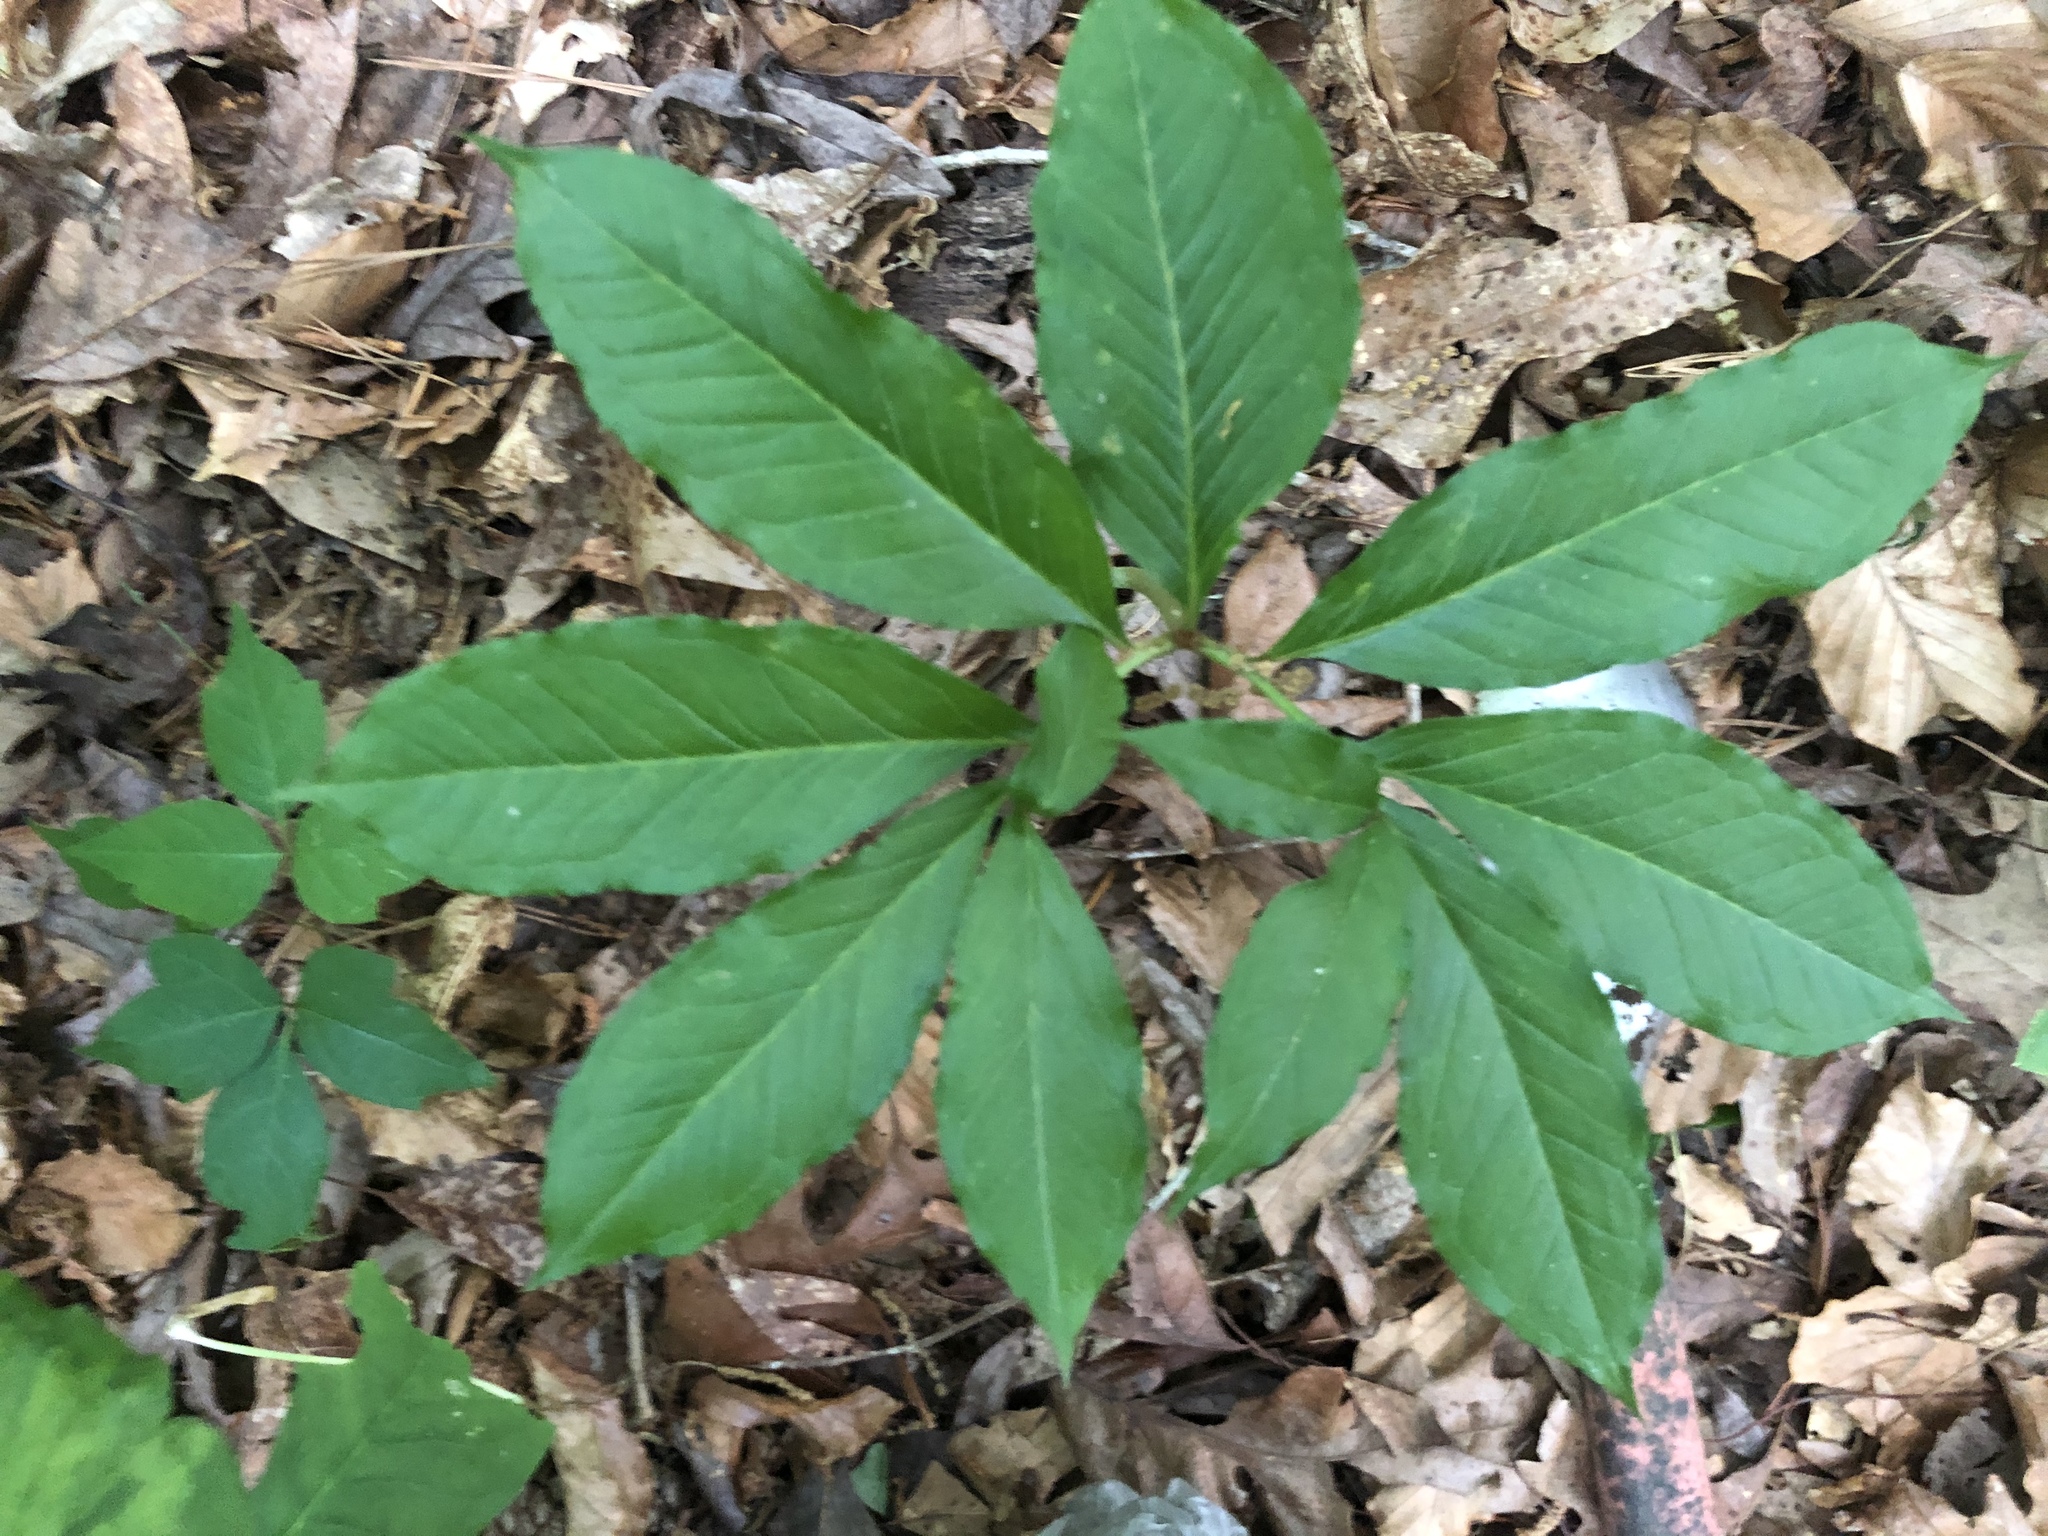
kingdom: Plantae
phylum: Tracheophyta
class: Liliopsida
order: Alismatales
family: Araceae
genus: Arisaema
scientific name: Arisaema dracontium
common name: Dragon-arum
